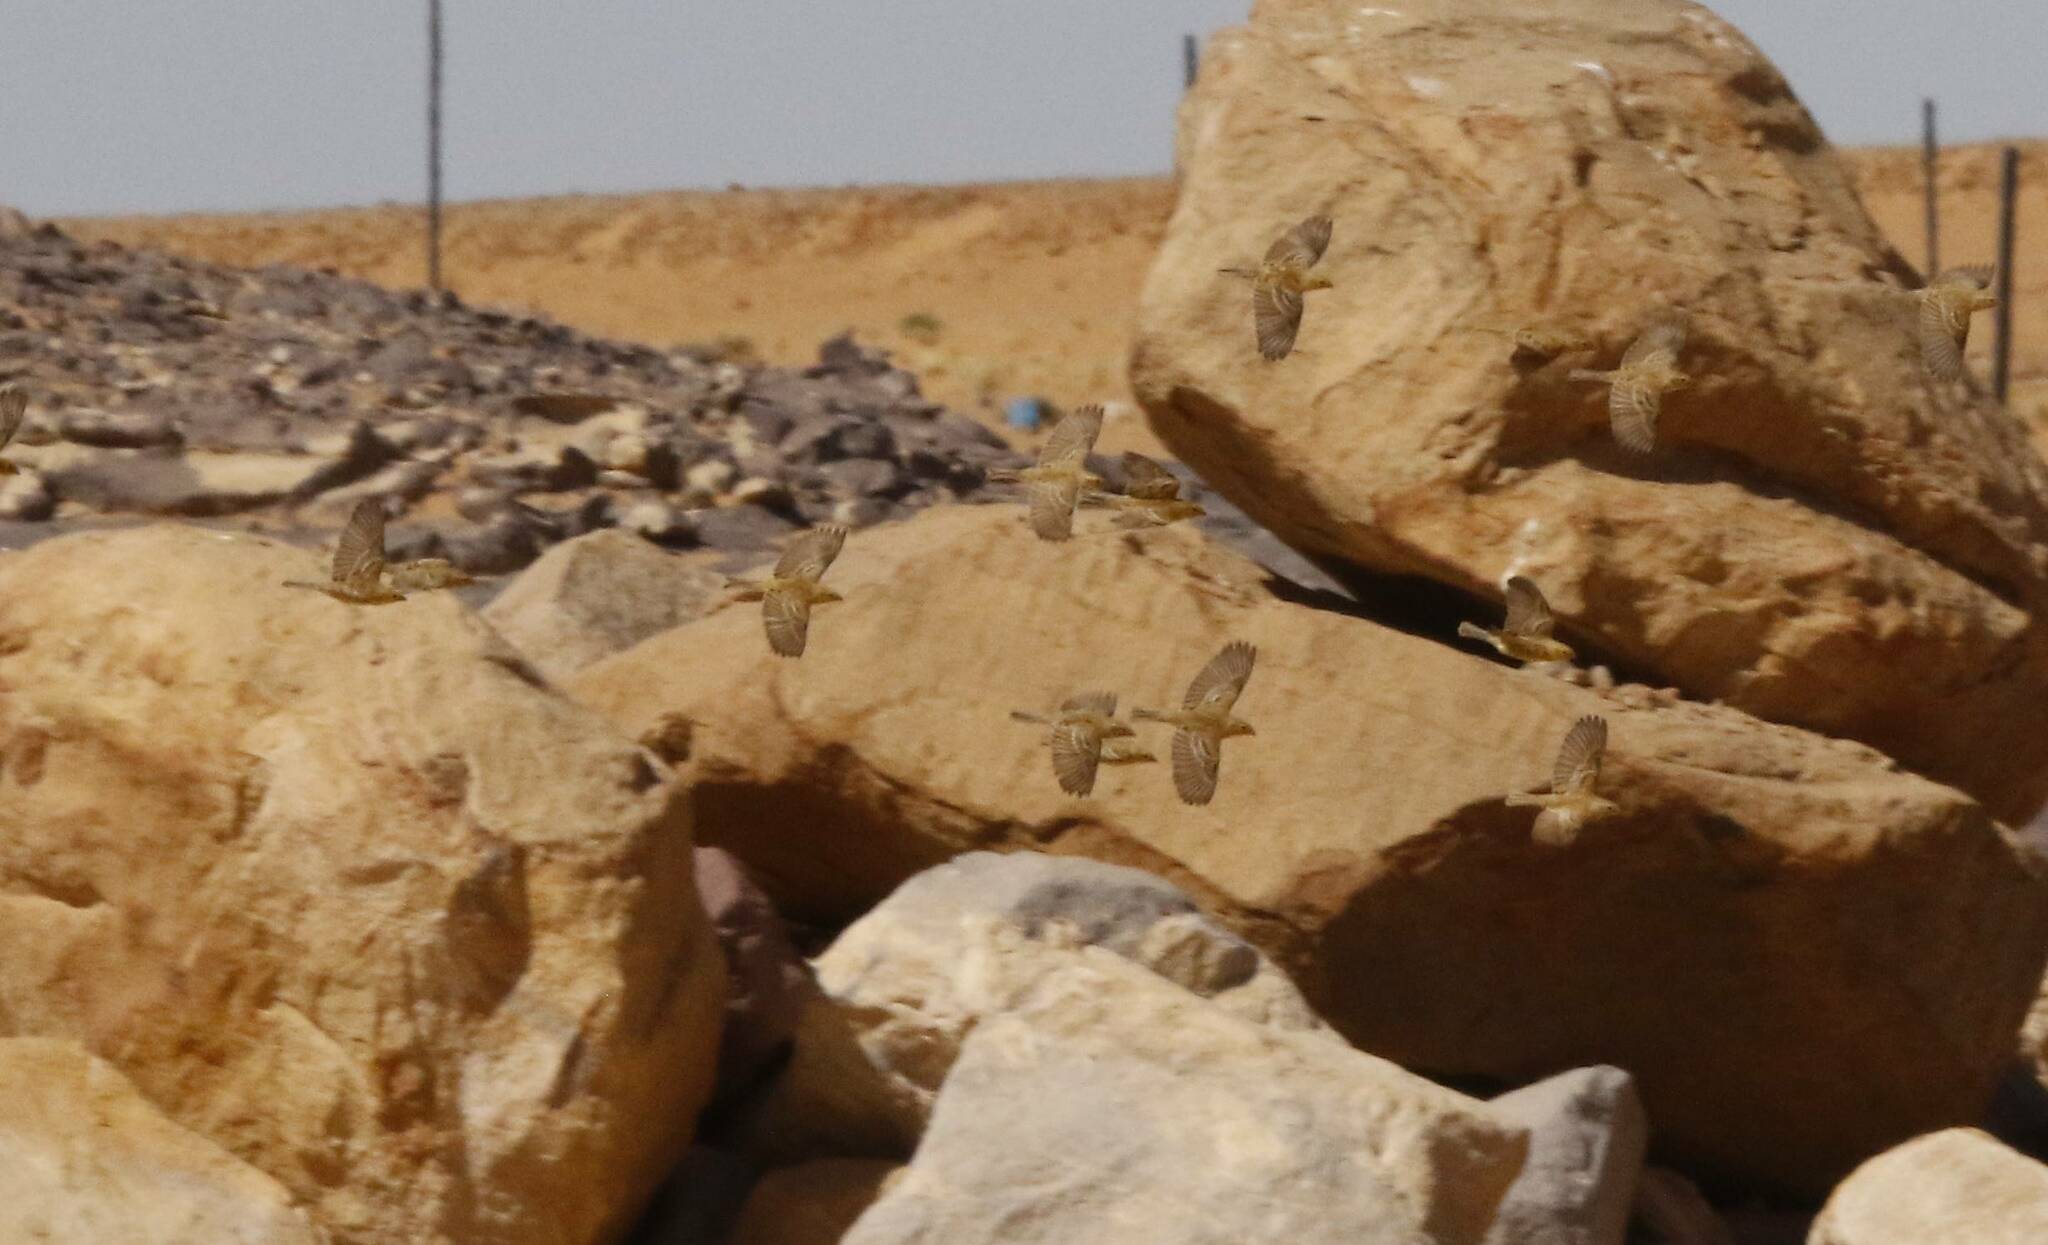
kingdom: Animalia
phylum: Chordata
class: Aves
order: Passeriformes
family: Passeridae
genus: Passer
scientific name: Passer luteus
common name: Sudan golden sparrow
